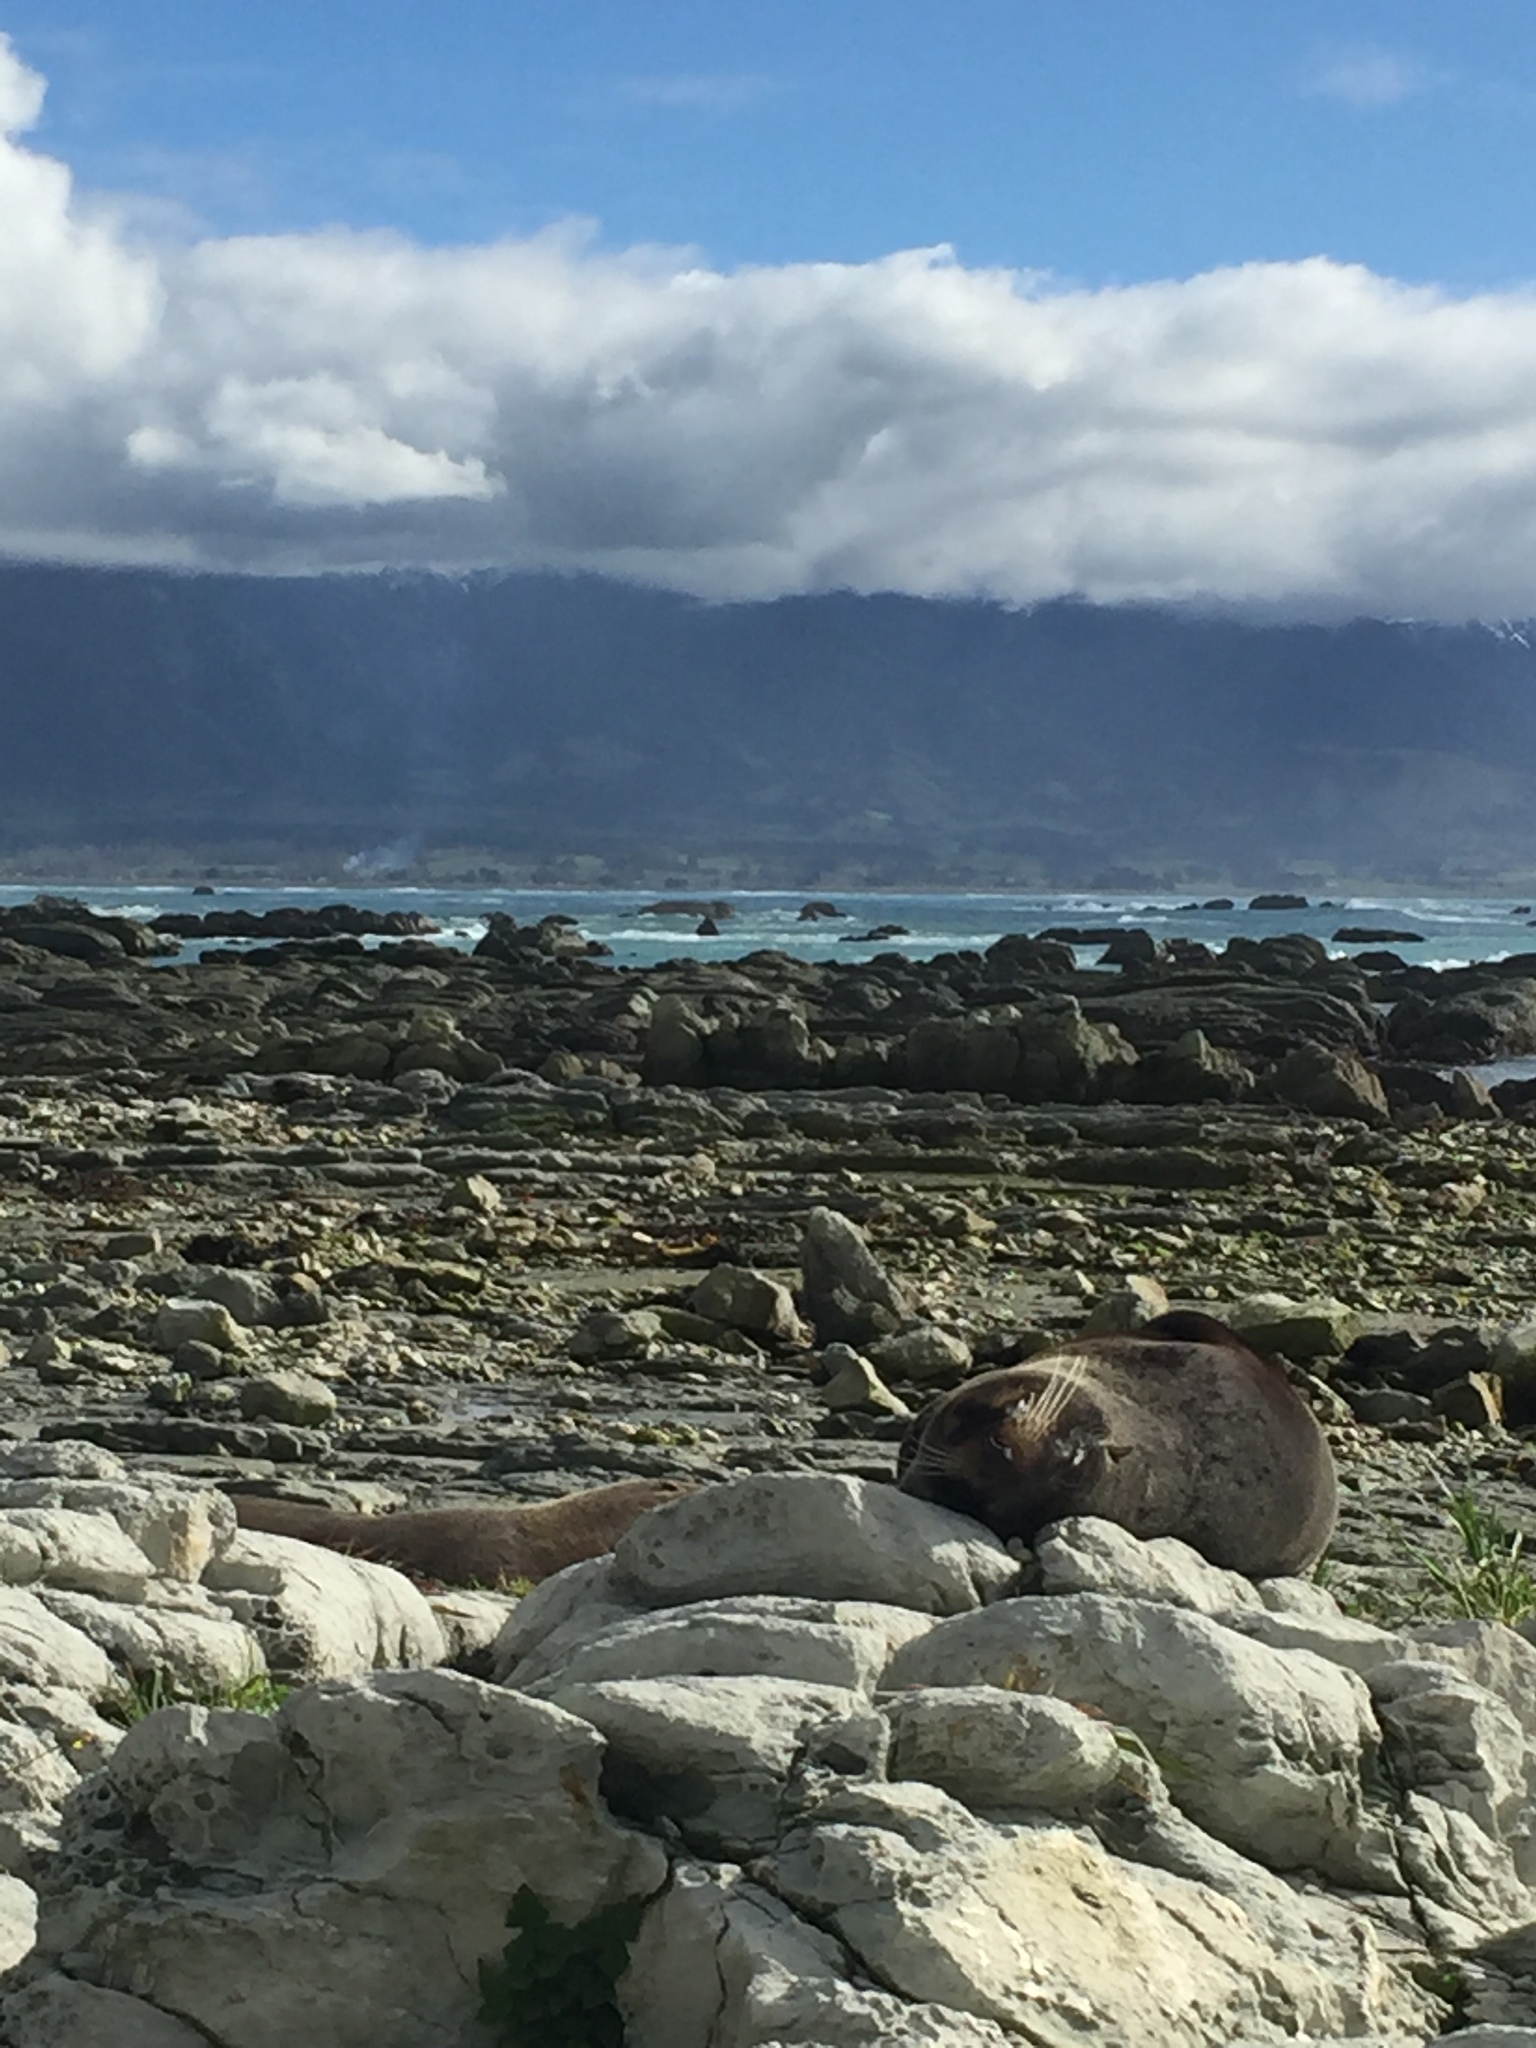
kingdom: Animalia
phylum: Chordata
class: Mammalia
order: Carnivora
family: Otariidae
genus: Arctocephalus
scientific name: Arctocephalus forsteri
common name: New zealand fur seal
